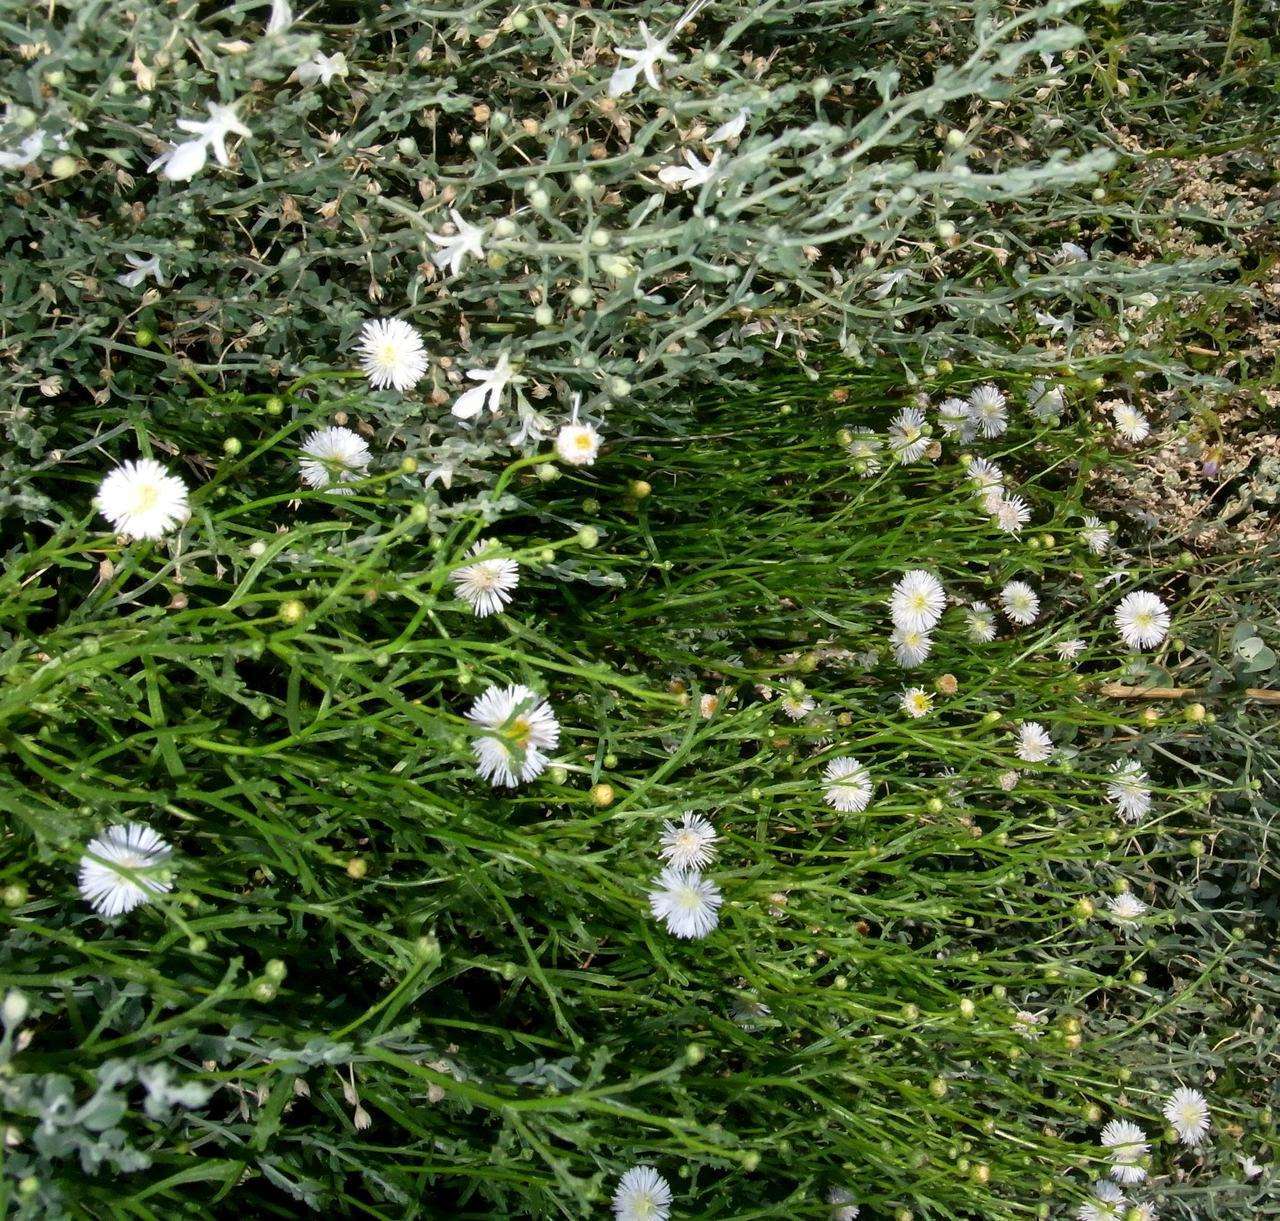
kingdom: Plantae
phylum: Tracheophyta
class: Magnoliopsida
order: Asterales
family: Asteraceae
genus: Minuria
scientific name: Minuria denticulata
